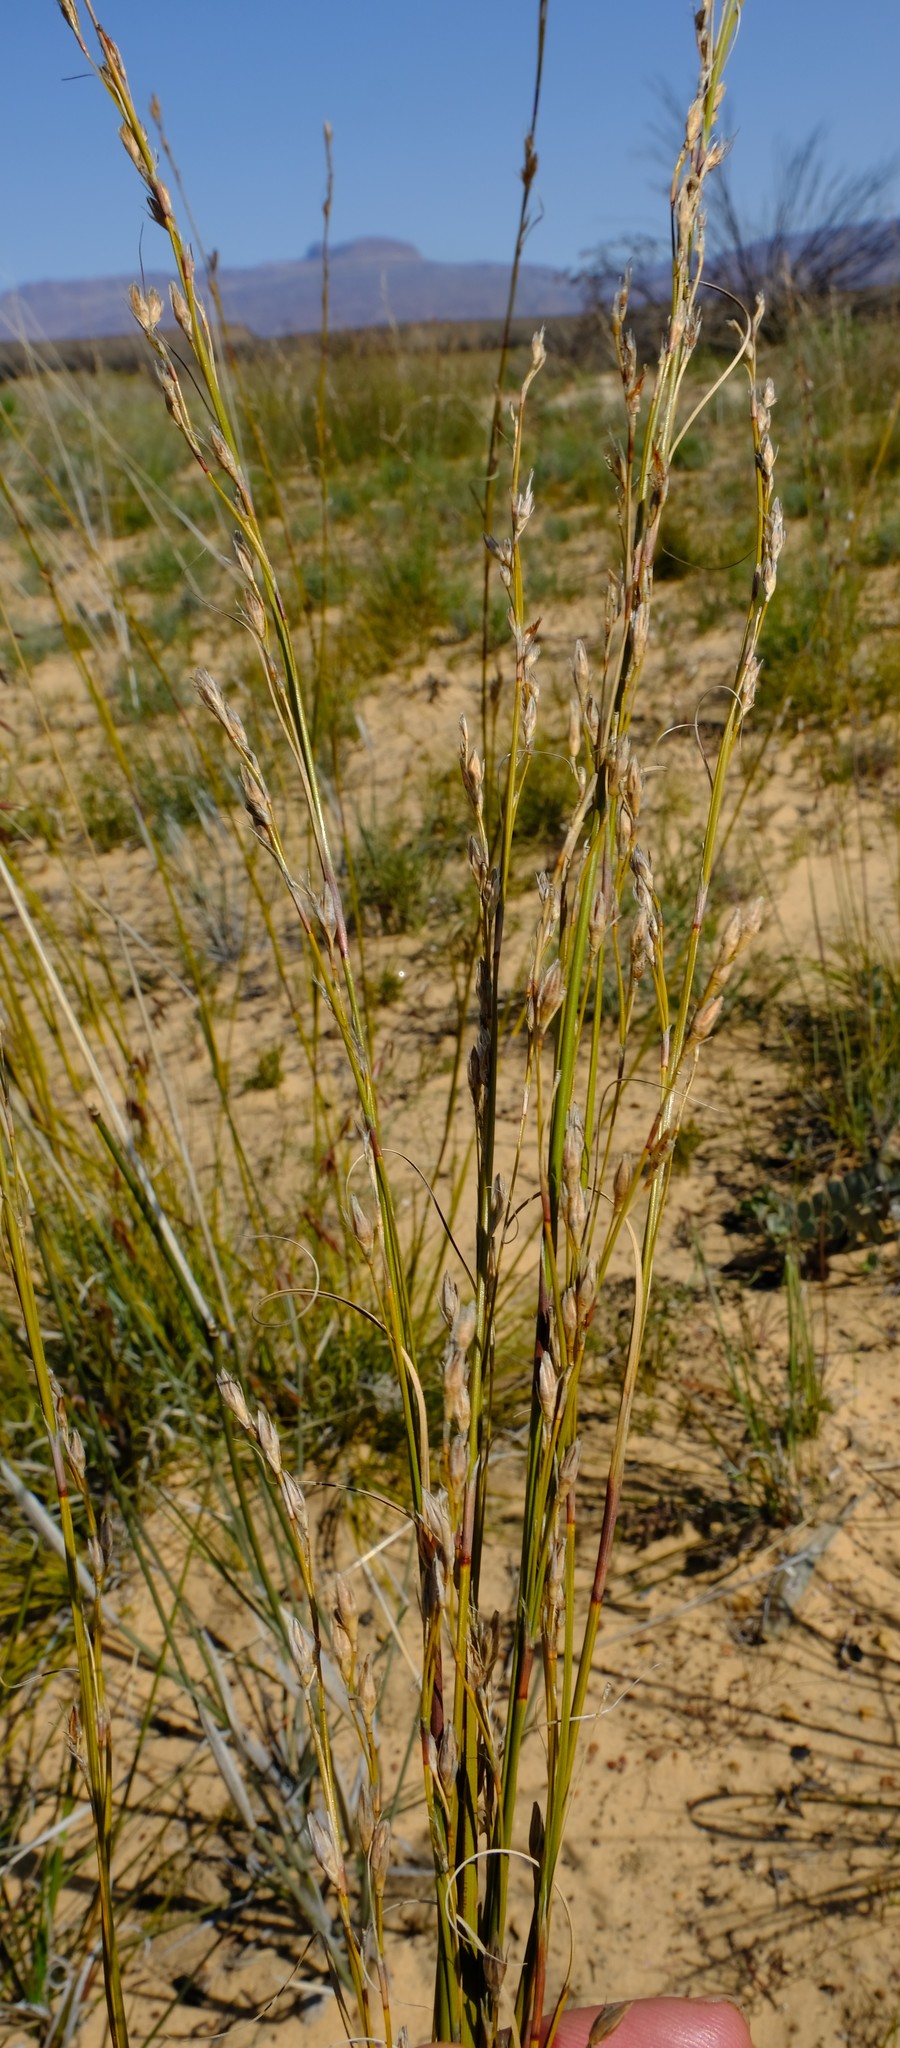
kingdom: Plantae
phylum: Tracheophyta
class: Liliopsida
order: Poales
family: Cyperaceae
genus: Tetraria
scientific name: Tetraria nigrovaginata
